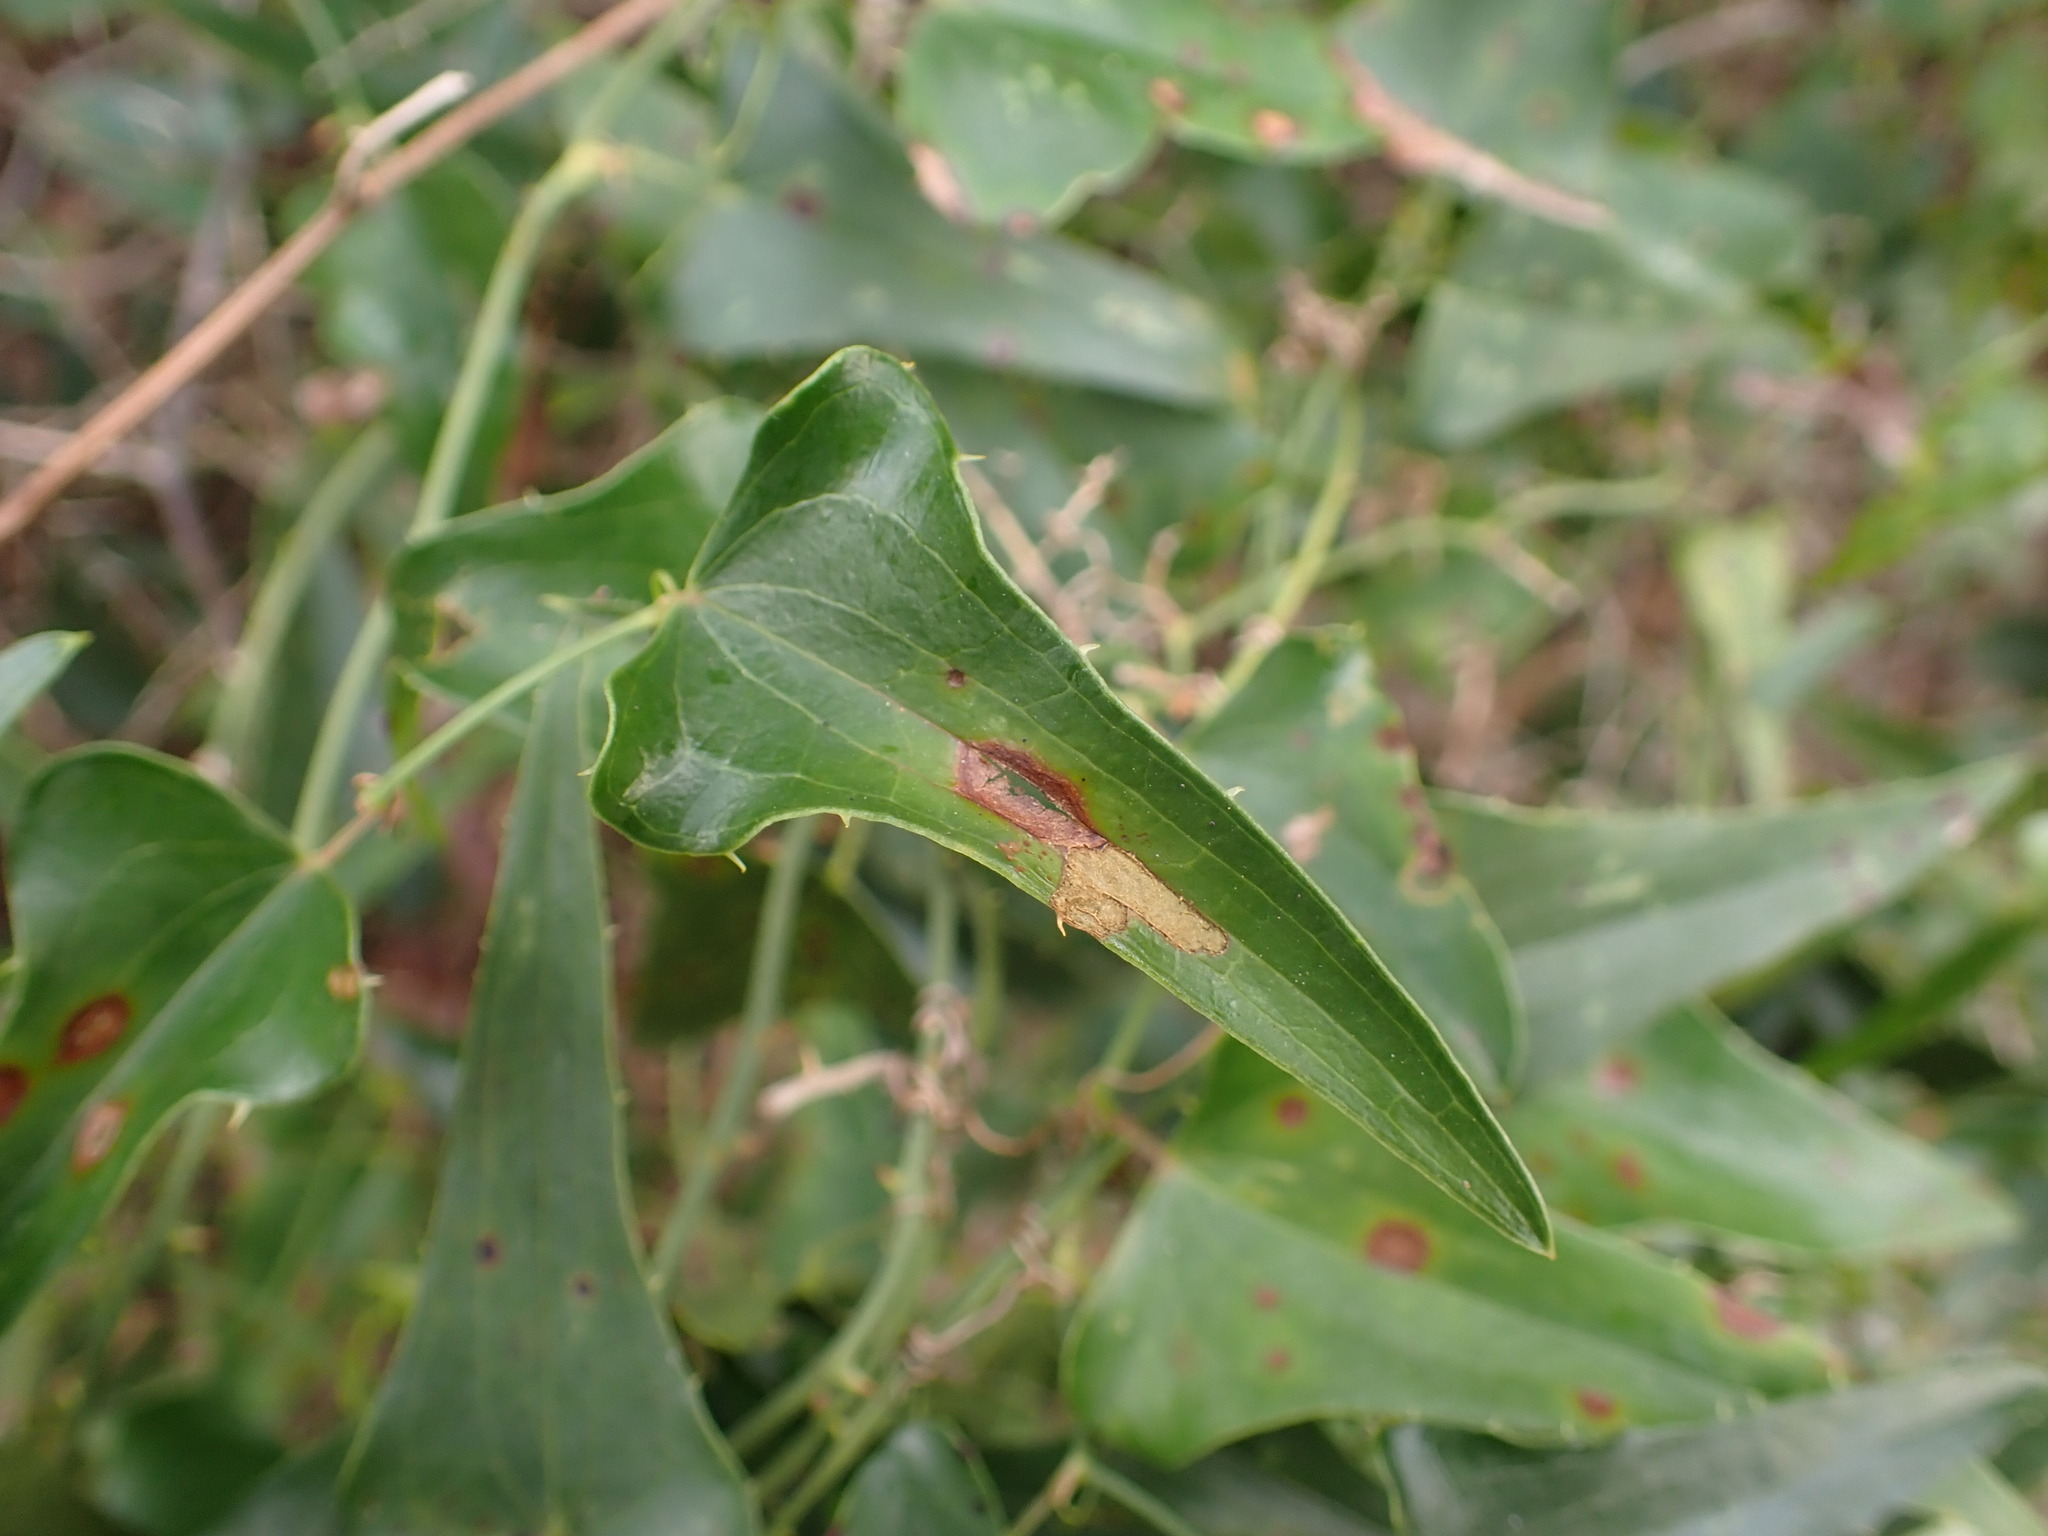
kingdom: Plantae
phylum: Tracheophyta
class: Liliopsida
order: Liliales
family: Smilacaceae
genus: Smilax
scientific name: Smilax aspera
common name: Common smilax
